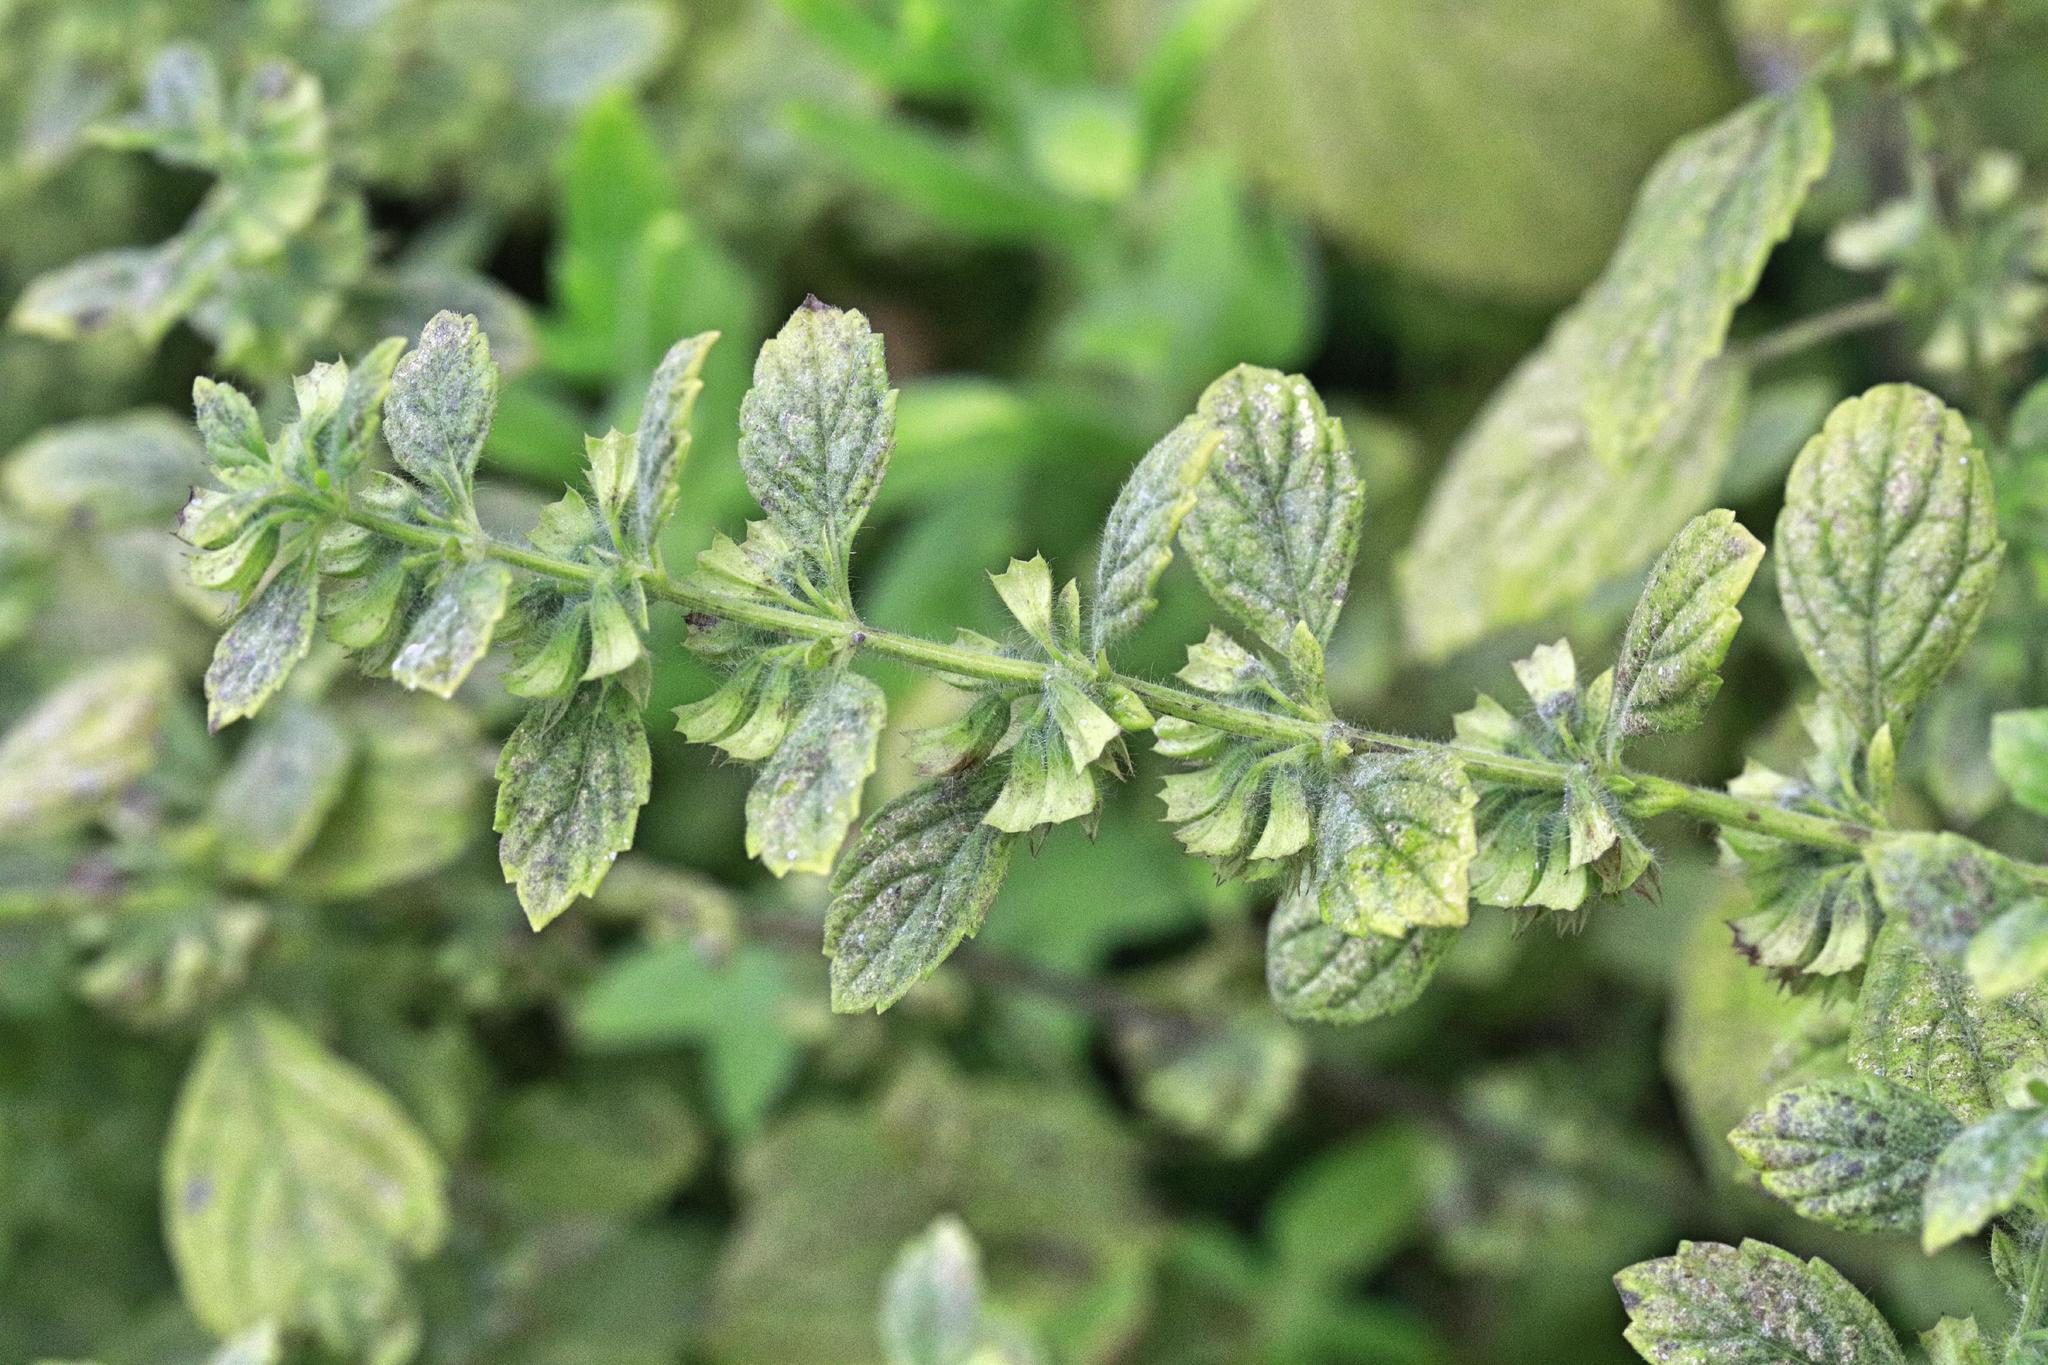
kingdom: Plantae
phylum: Tracheophyta
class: Magnoliopsida
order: Lamiales
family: Lamiaceae
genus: Melissa
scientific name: Melissa officinalis
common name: Balm
